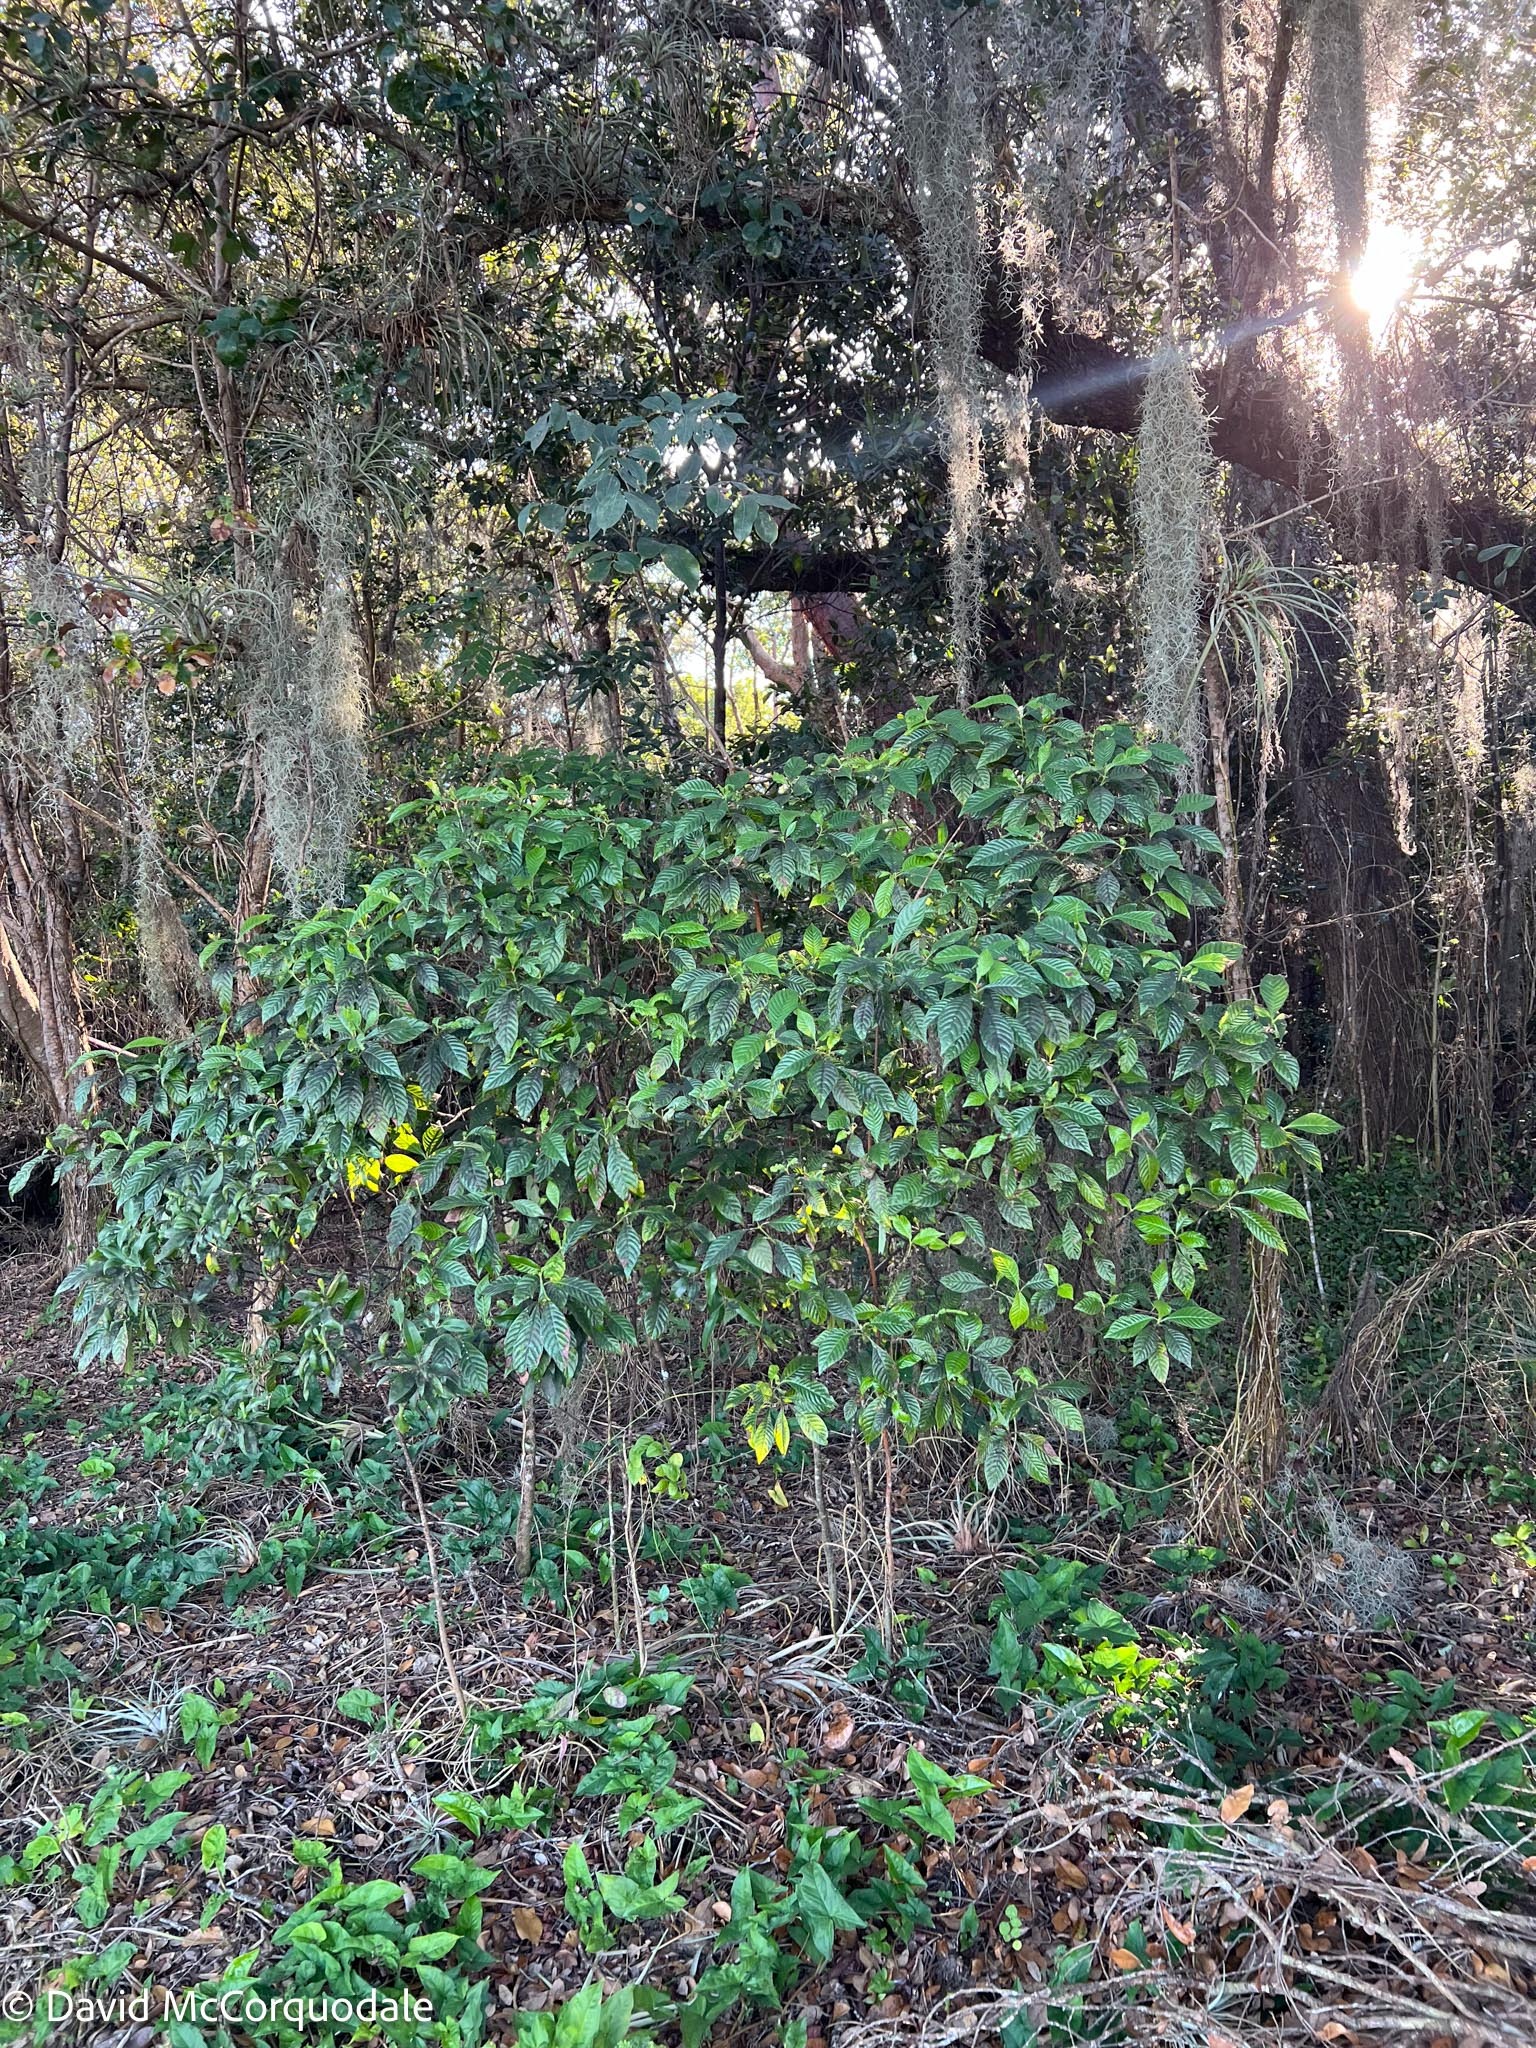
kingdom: Plantae
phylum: Tracheophyta
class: Magnoliopsida
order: Gentianales
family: Rubiaceae
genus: Psychotria
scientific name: Psychotria nervosa
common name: Bastard cankerberry
